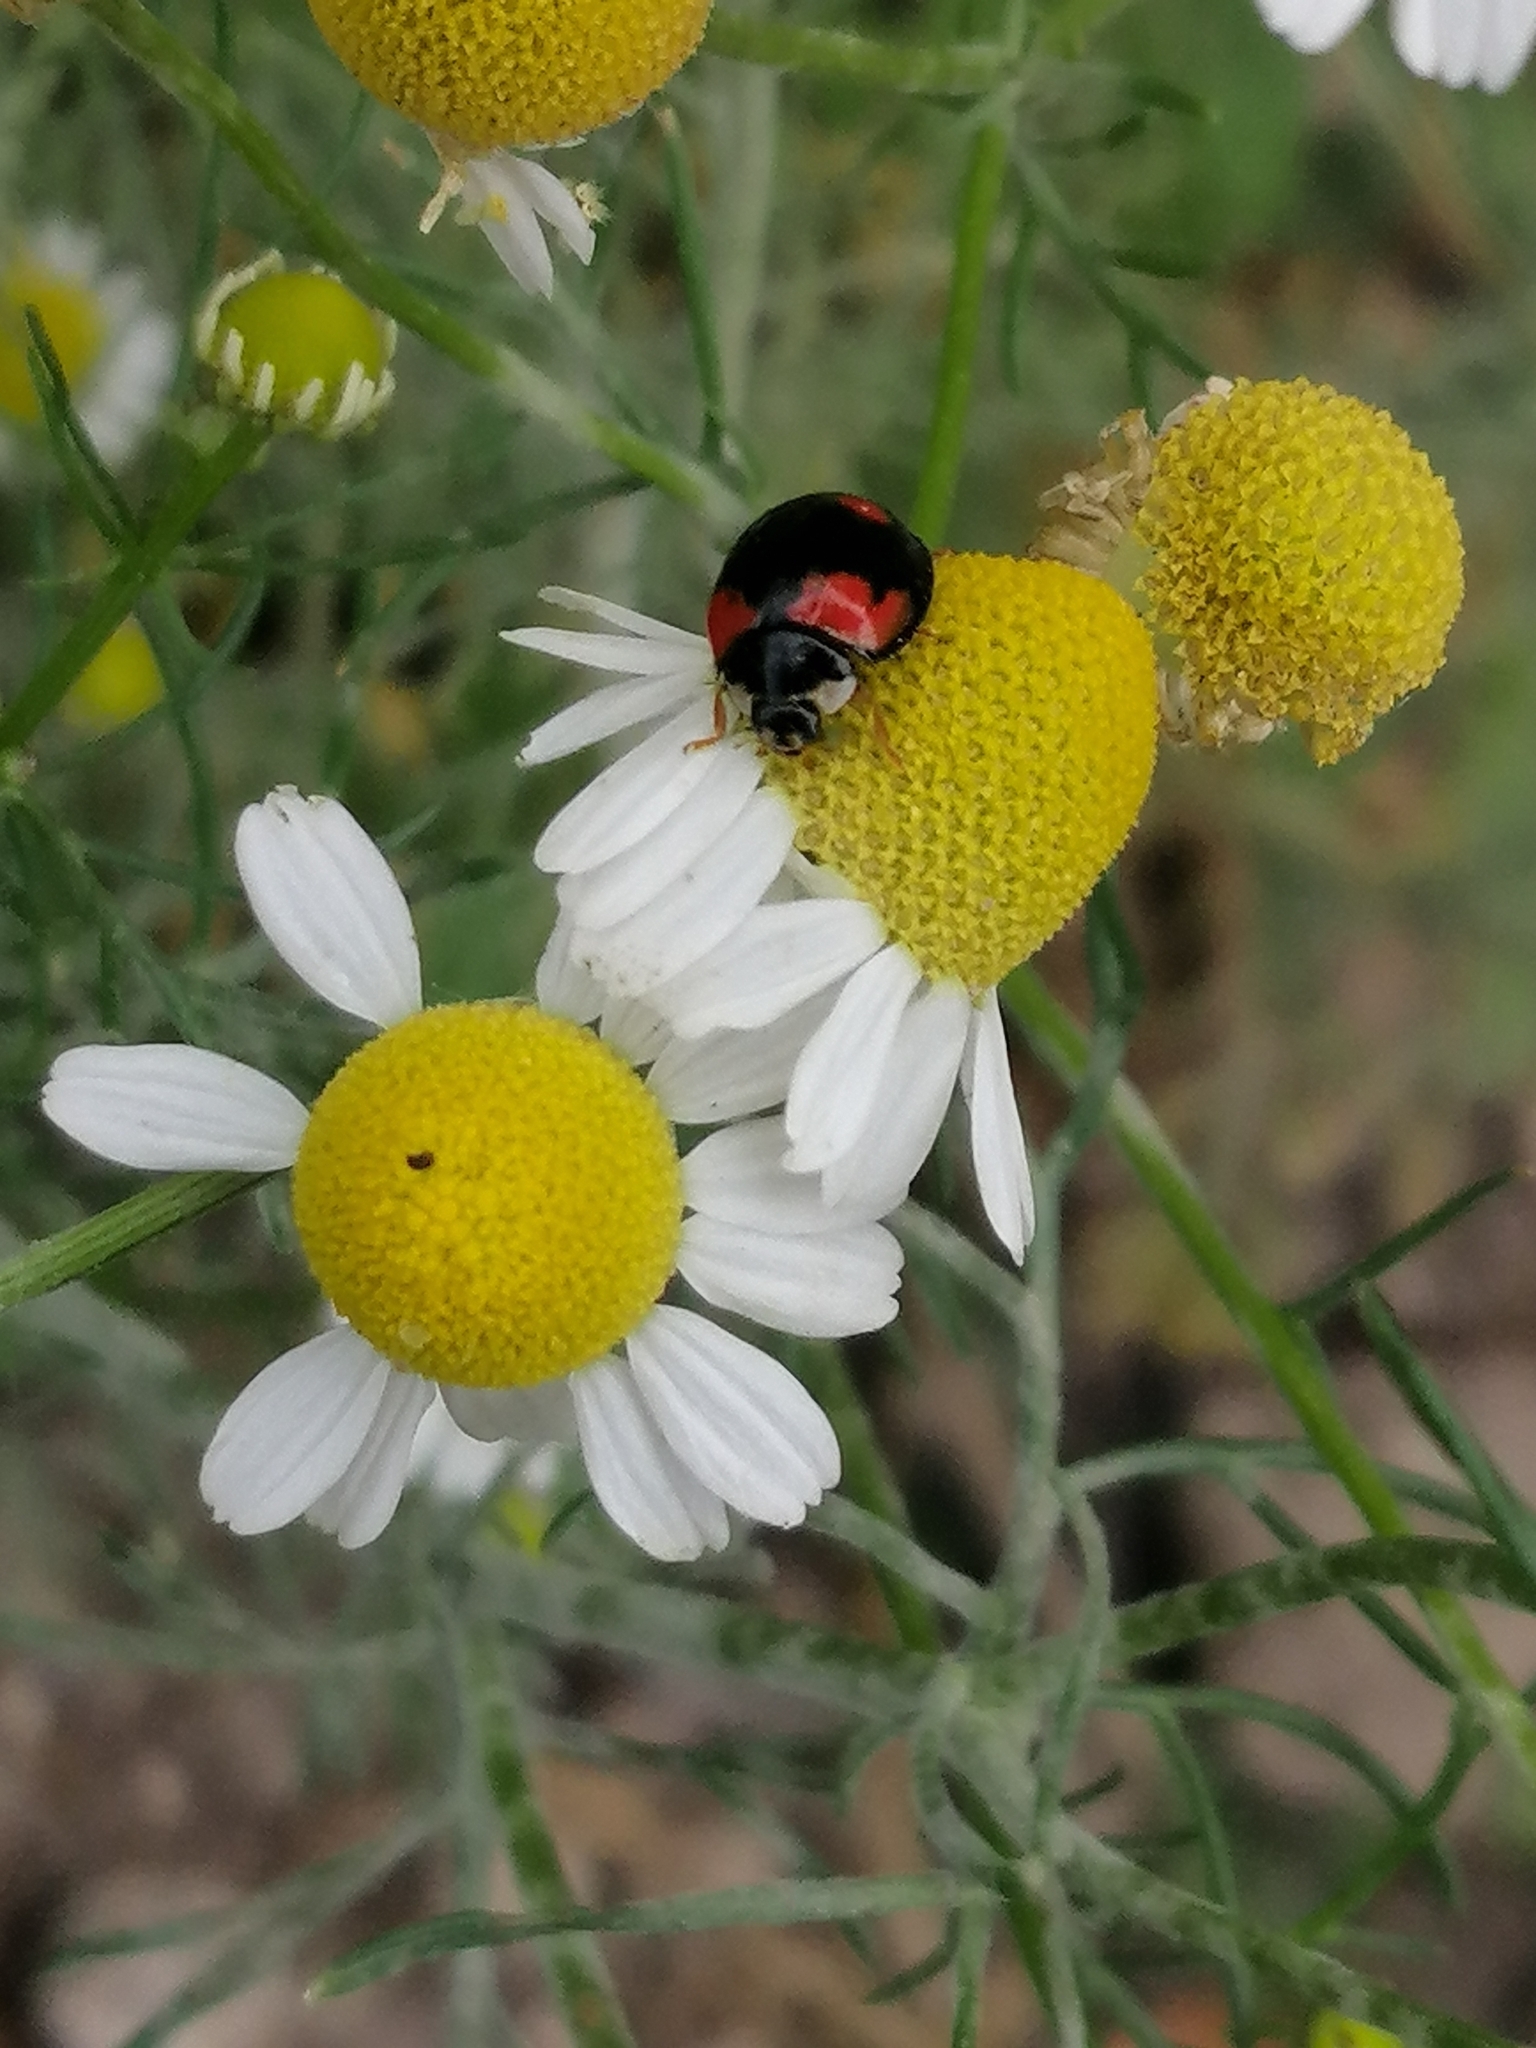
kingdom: Animalia
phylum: Arthropoda
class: Insecta
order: Coleoptera
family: Coccinellidae
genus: Cheilomenes
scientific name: Cheilomenes sexmaculata
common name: Ladybird beetle
